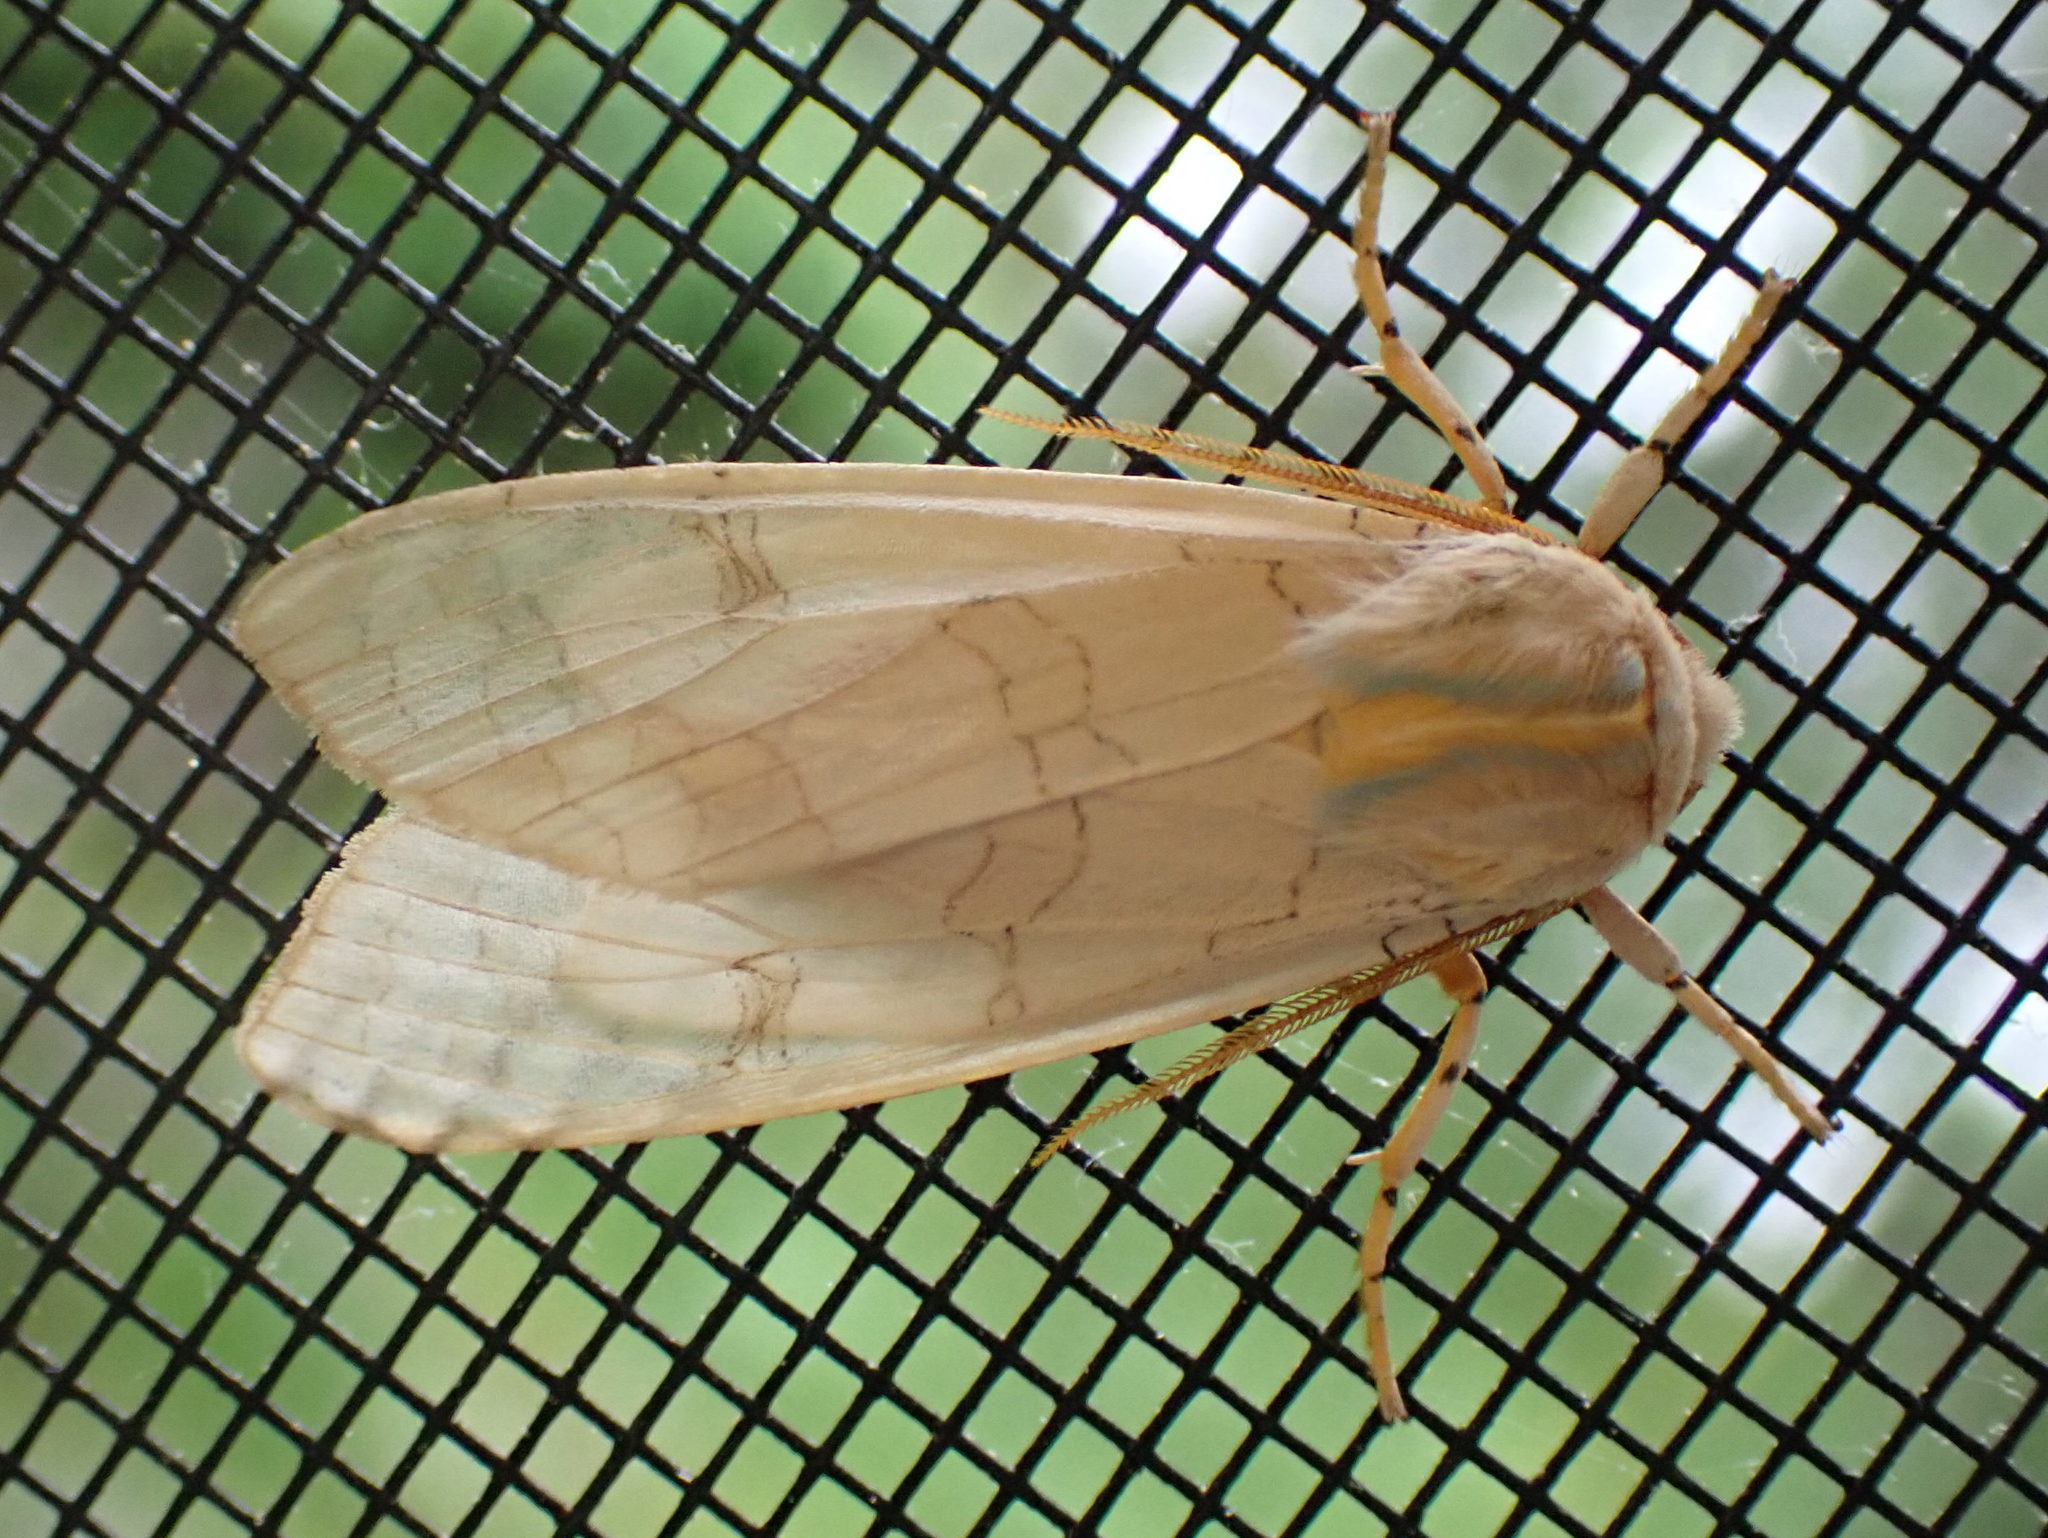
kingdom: Animalia
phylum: Arthropoda
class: Insecta
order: Lepidoptera
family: Erebidae
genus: Halysidota
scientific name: Halysidota tessellaris
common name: Banded tussock moth
